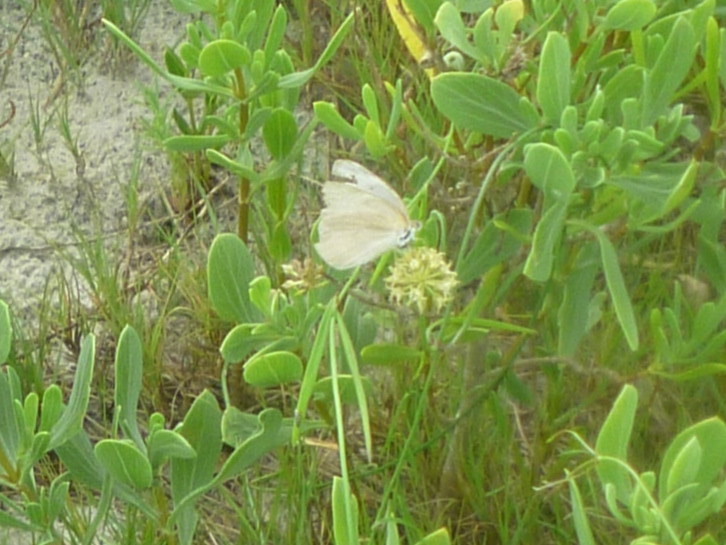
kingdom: Animalia
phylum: Arthropoda
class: Insecta
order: Lepidoptera
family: Pieridae
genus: Ascia
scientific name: Ascia monuste
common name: Great southern white
